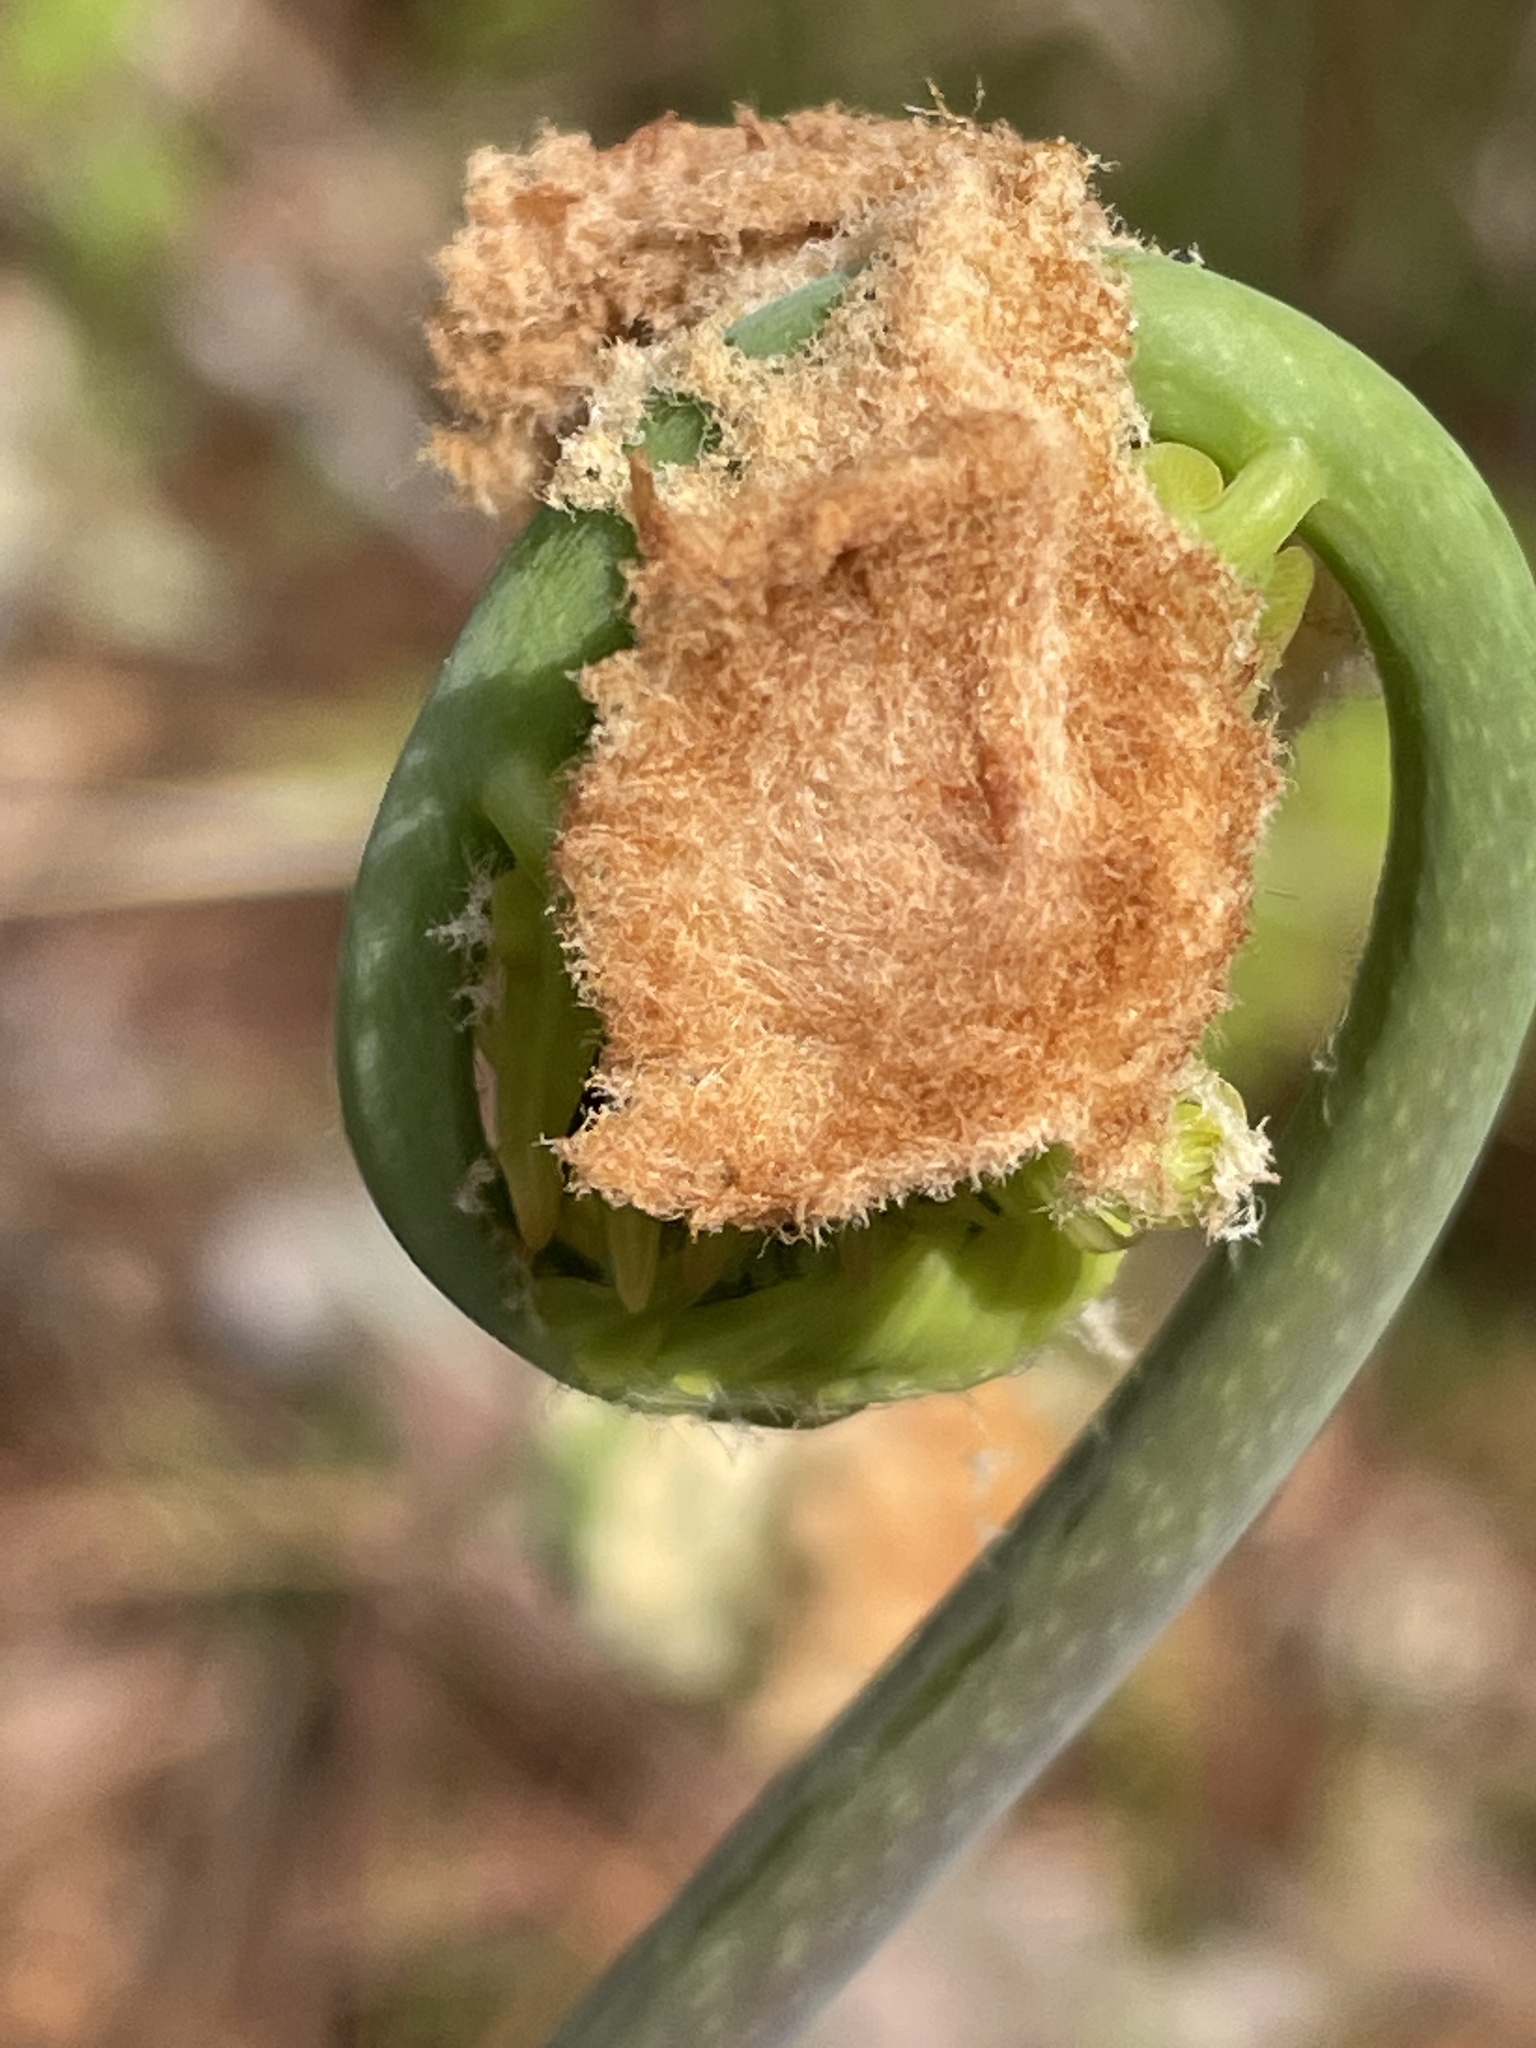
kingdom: Plantae
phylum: Tracheophyta
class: Polypodiopsida
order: Osmundales
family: Osmundaceae
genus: Osmunda
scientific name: Osmunda spectabilis
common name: American royal fern
